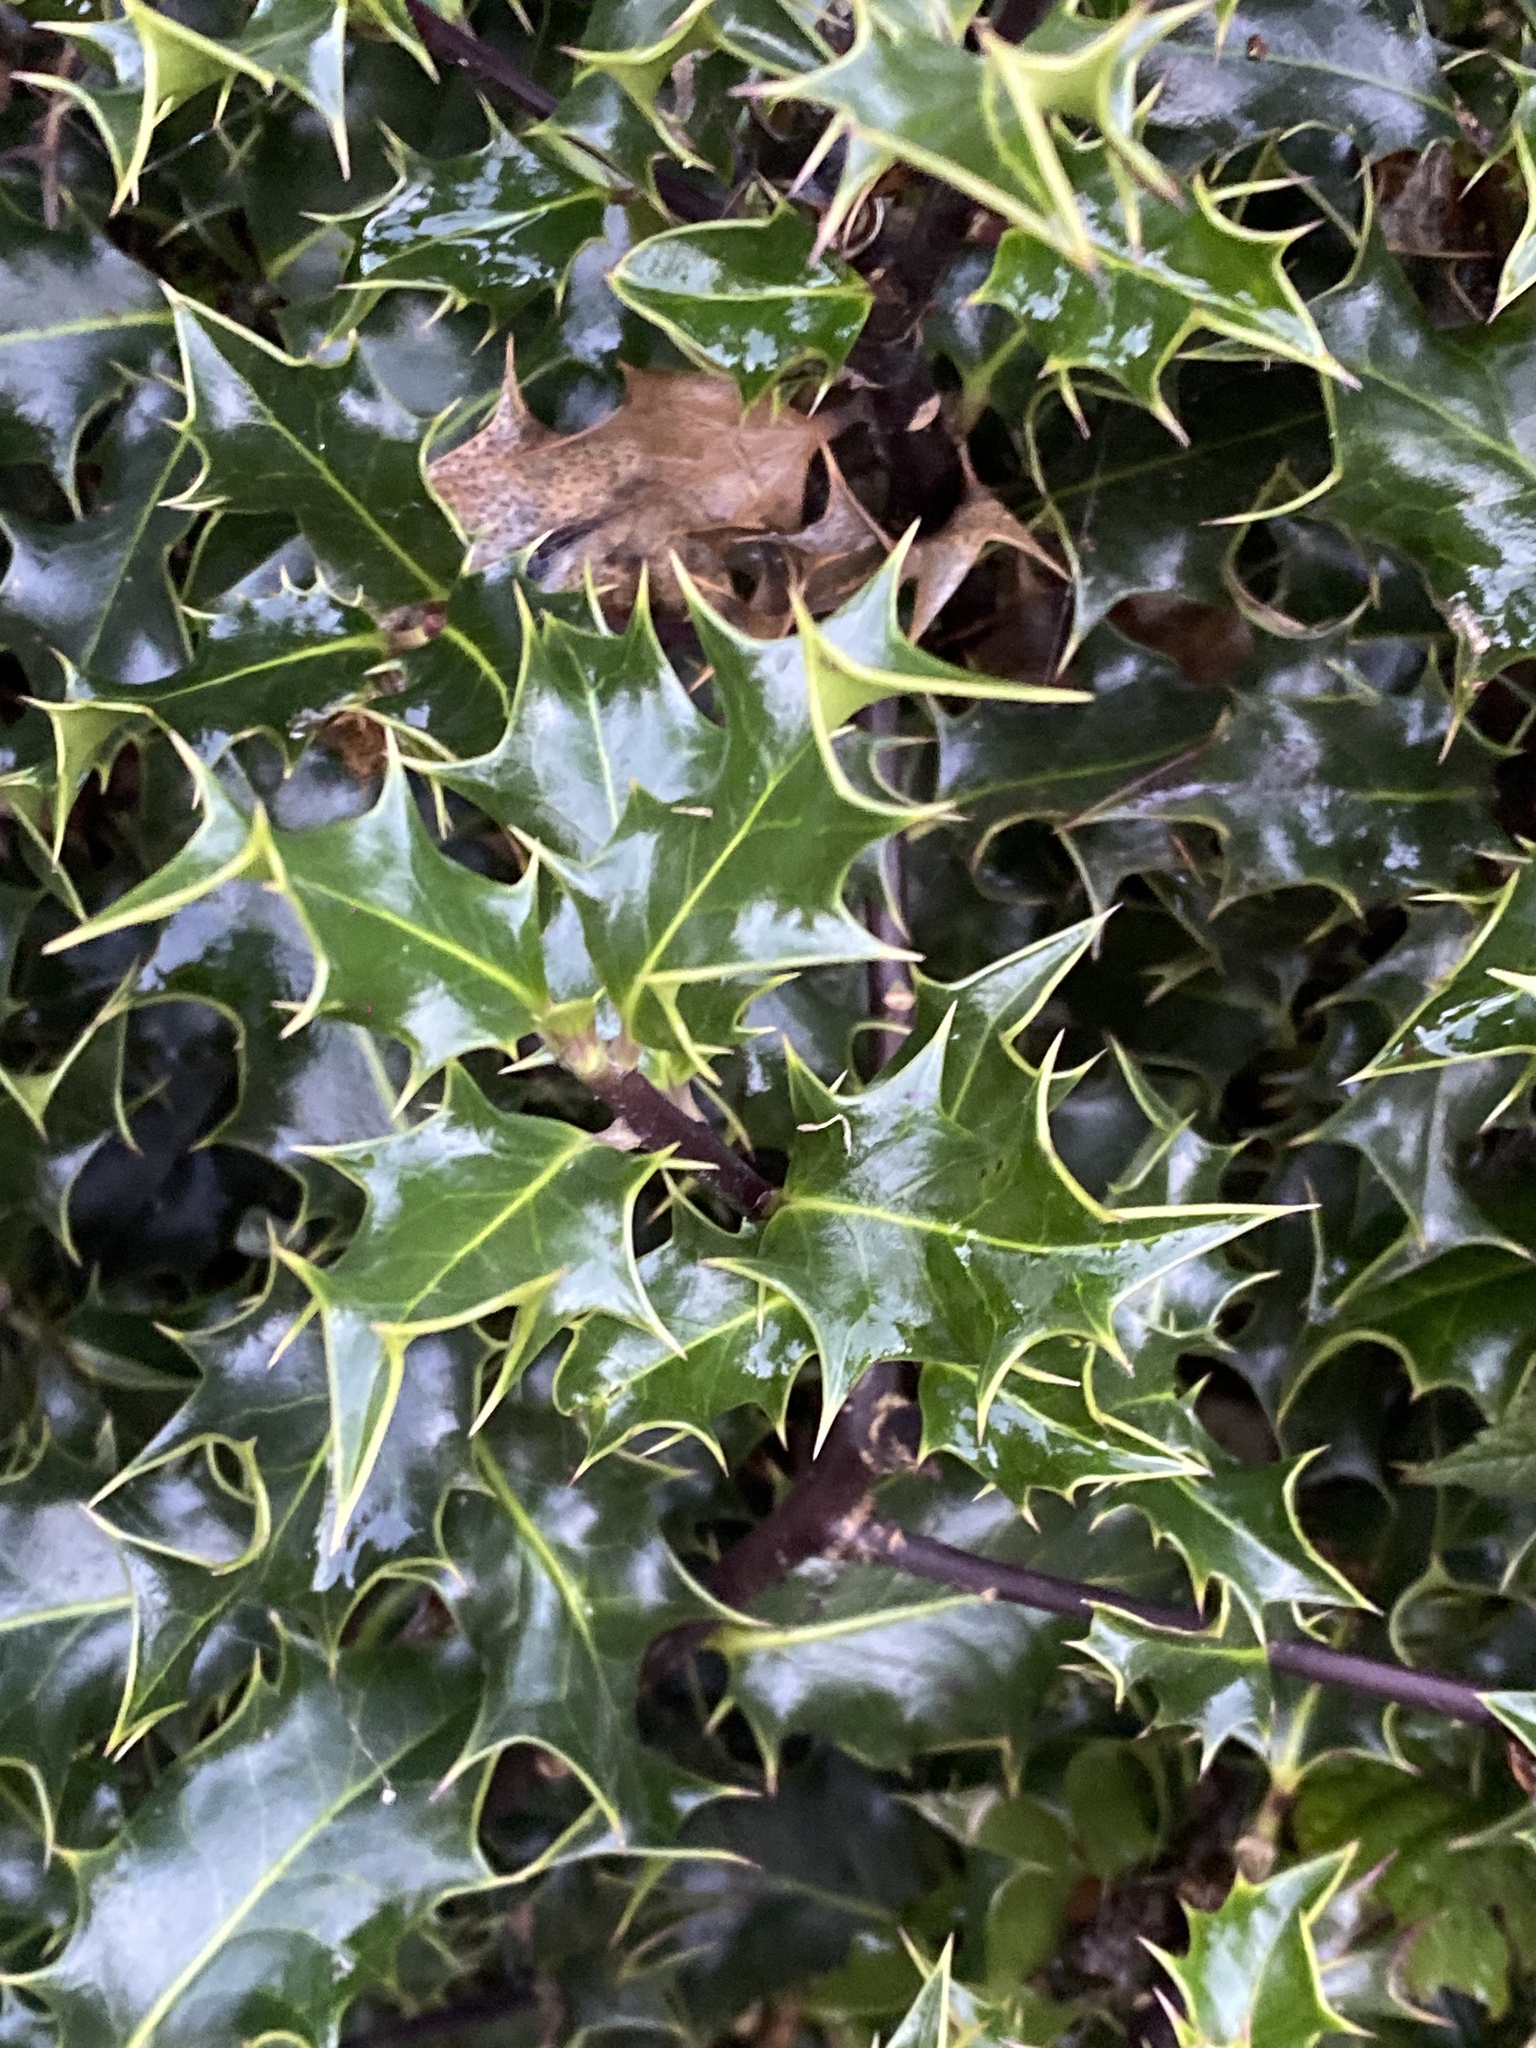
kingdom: Plantae
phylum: Tracheophyta
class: Magnoliopsida
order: Aquifoliales
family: Aquifoliaceae
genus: Ilex
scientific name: Ilex aquifolium
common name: English holly
